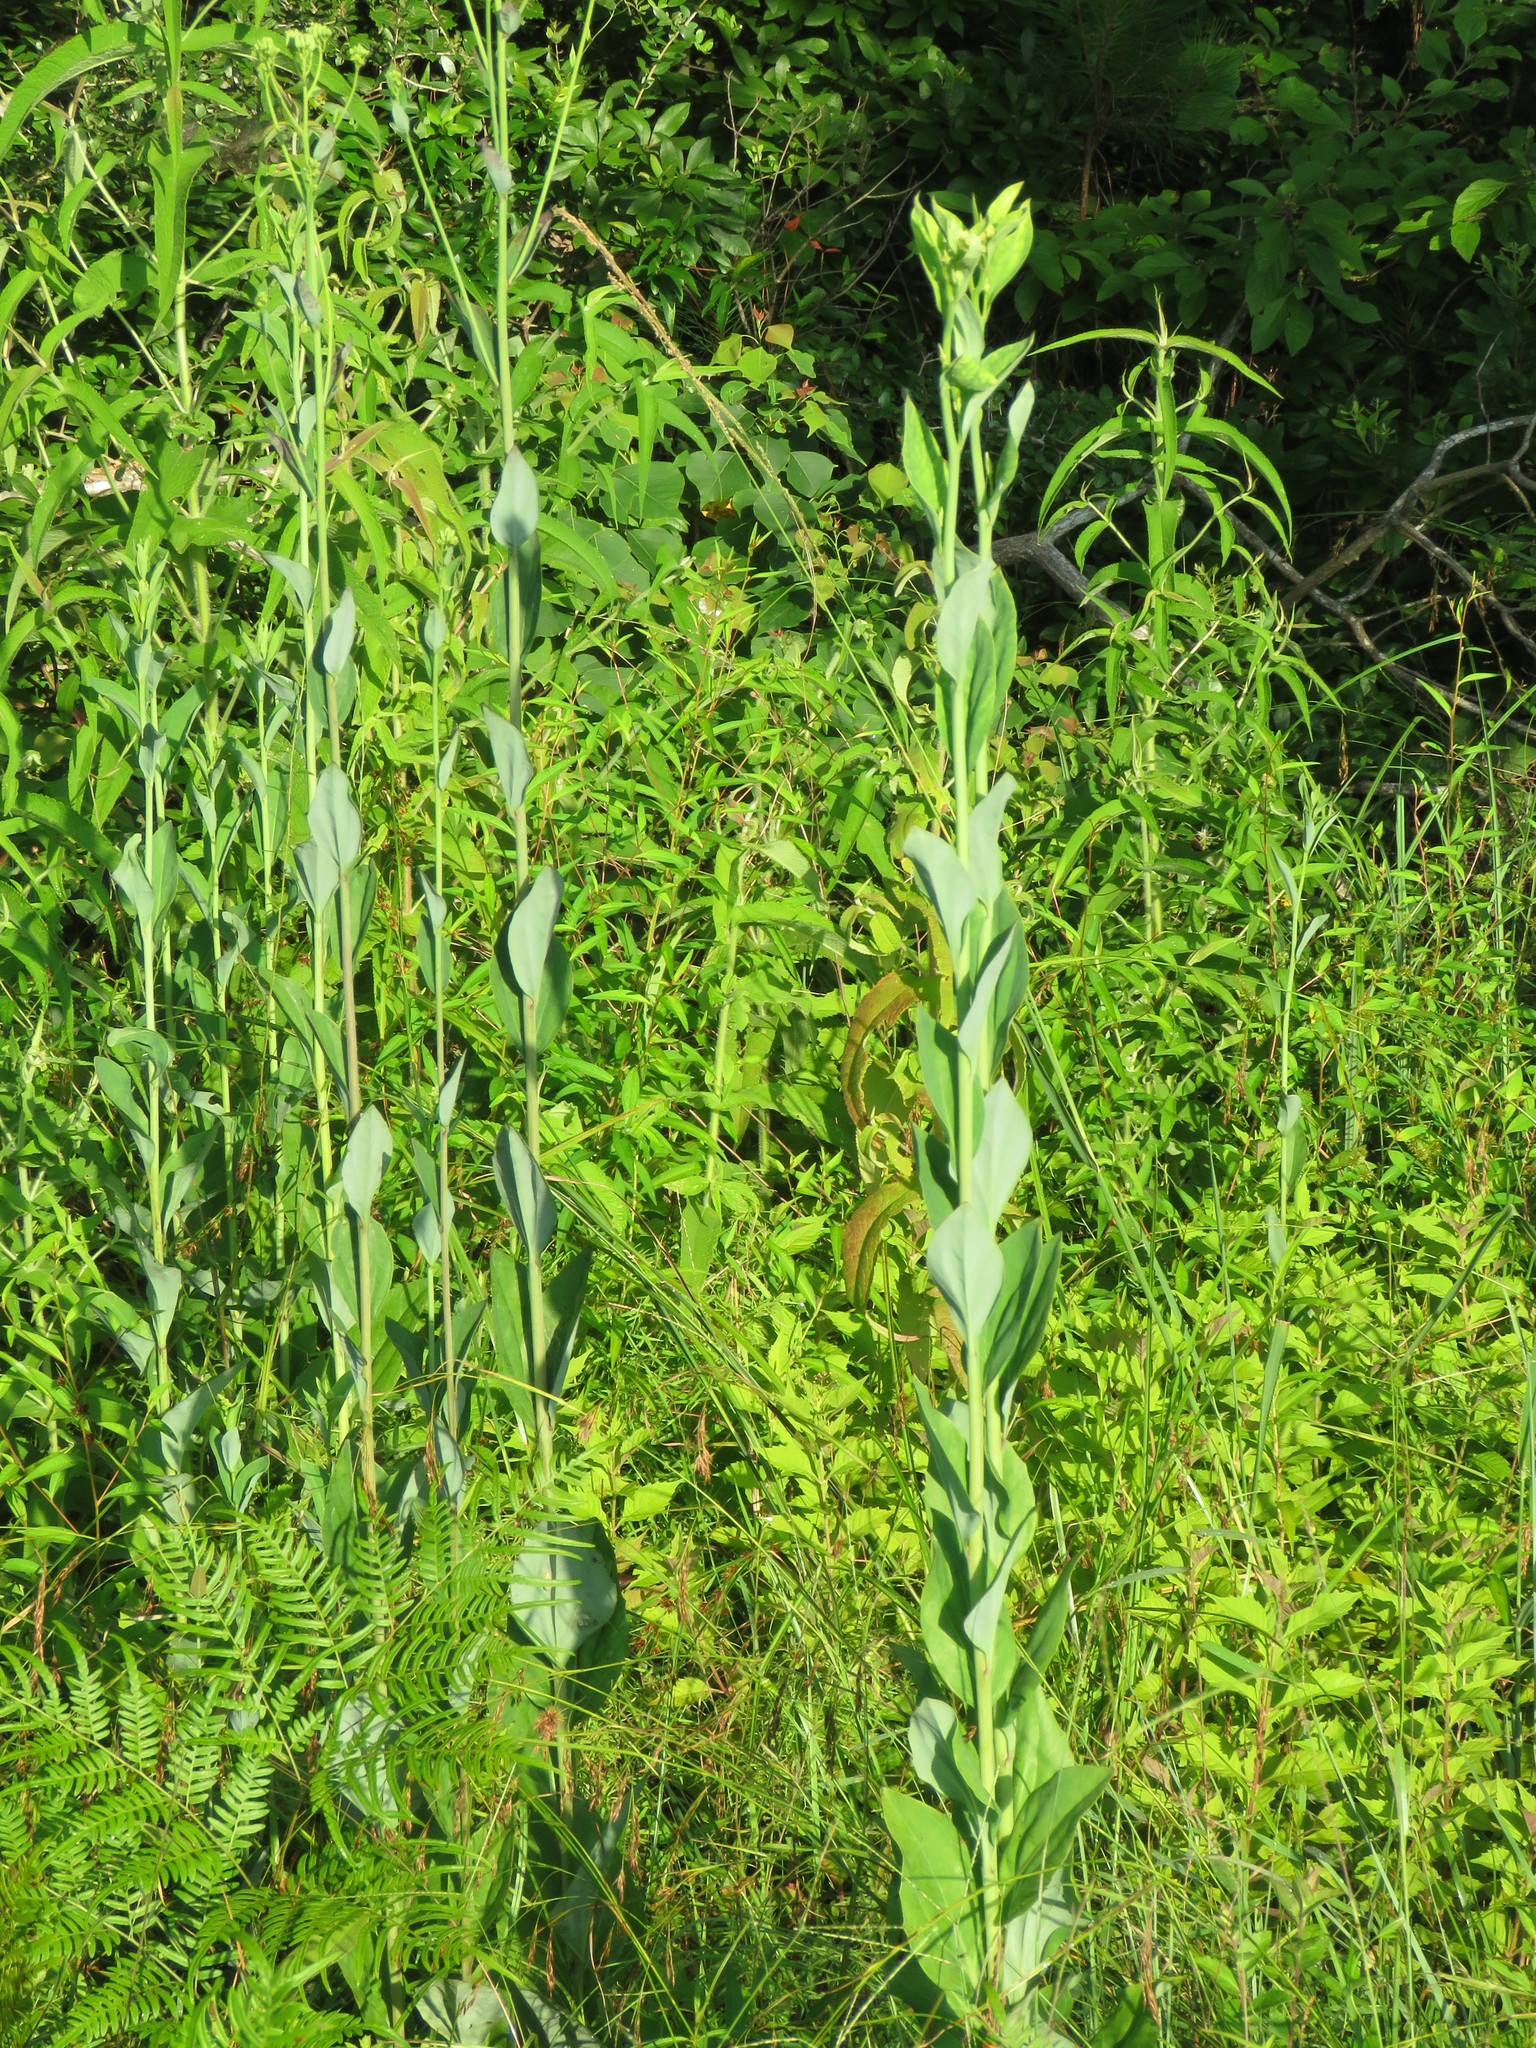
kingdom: Plantae
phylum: Tracheophyta
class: Magnoliopsida
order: Asterales
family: Asteraceae
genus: Arnoglossum
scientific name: Arnoglossum ovatum
